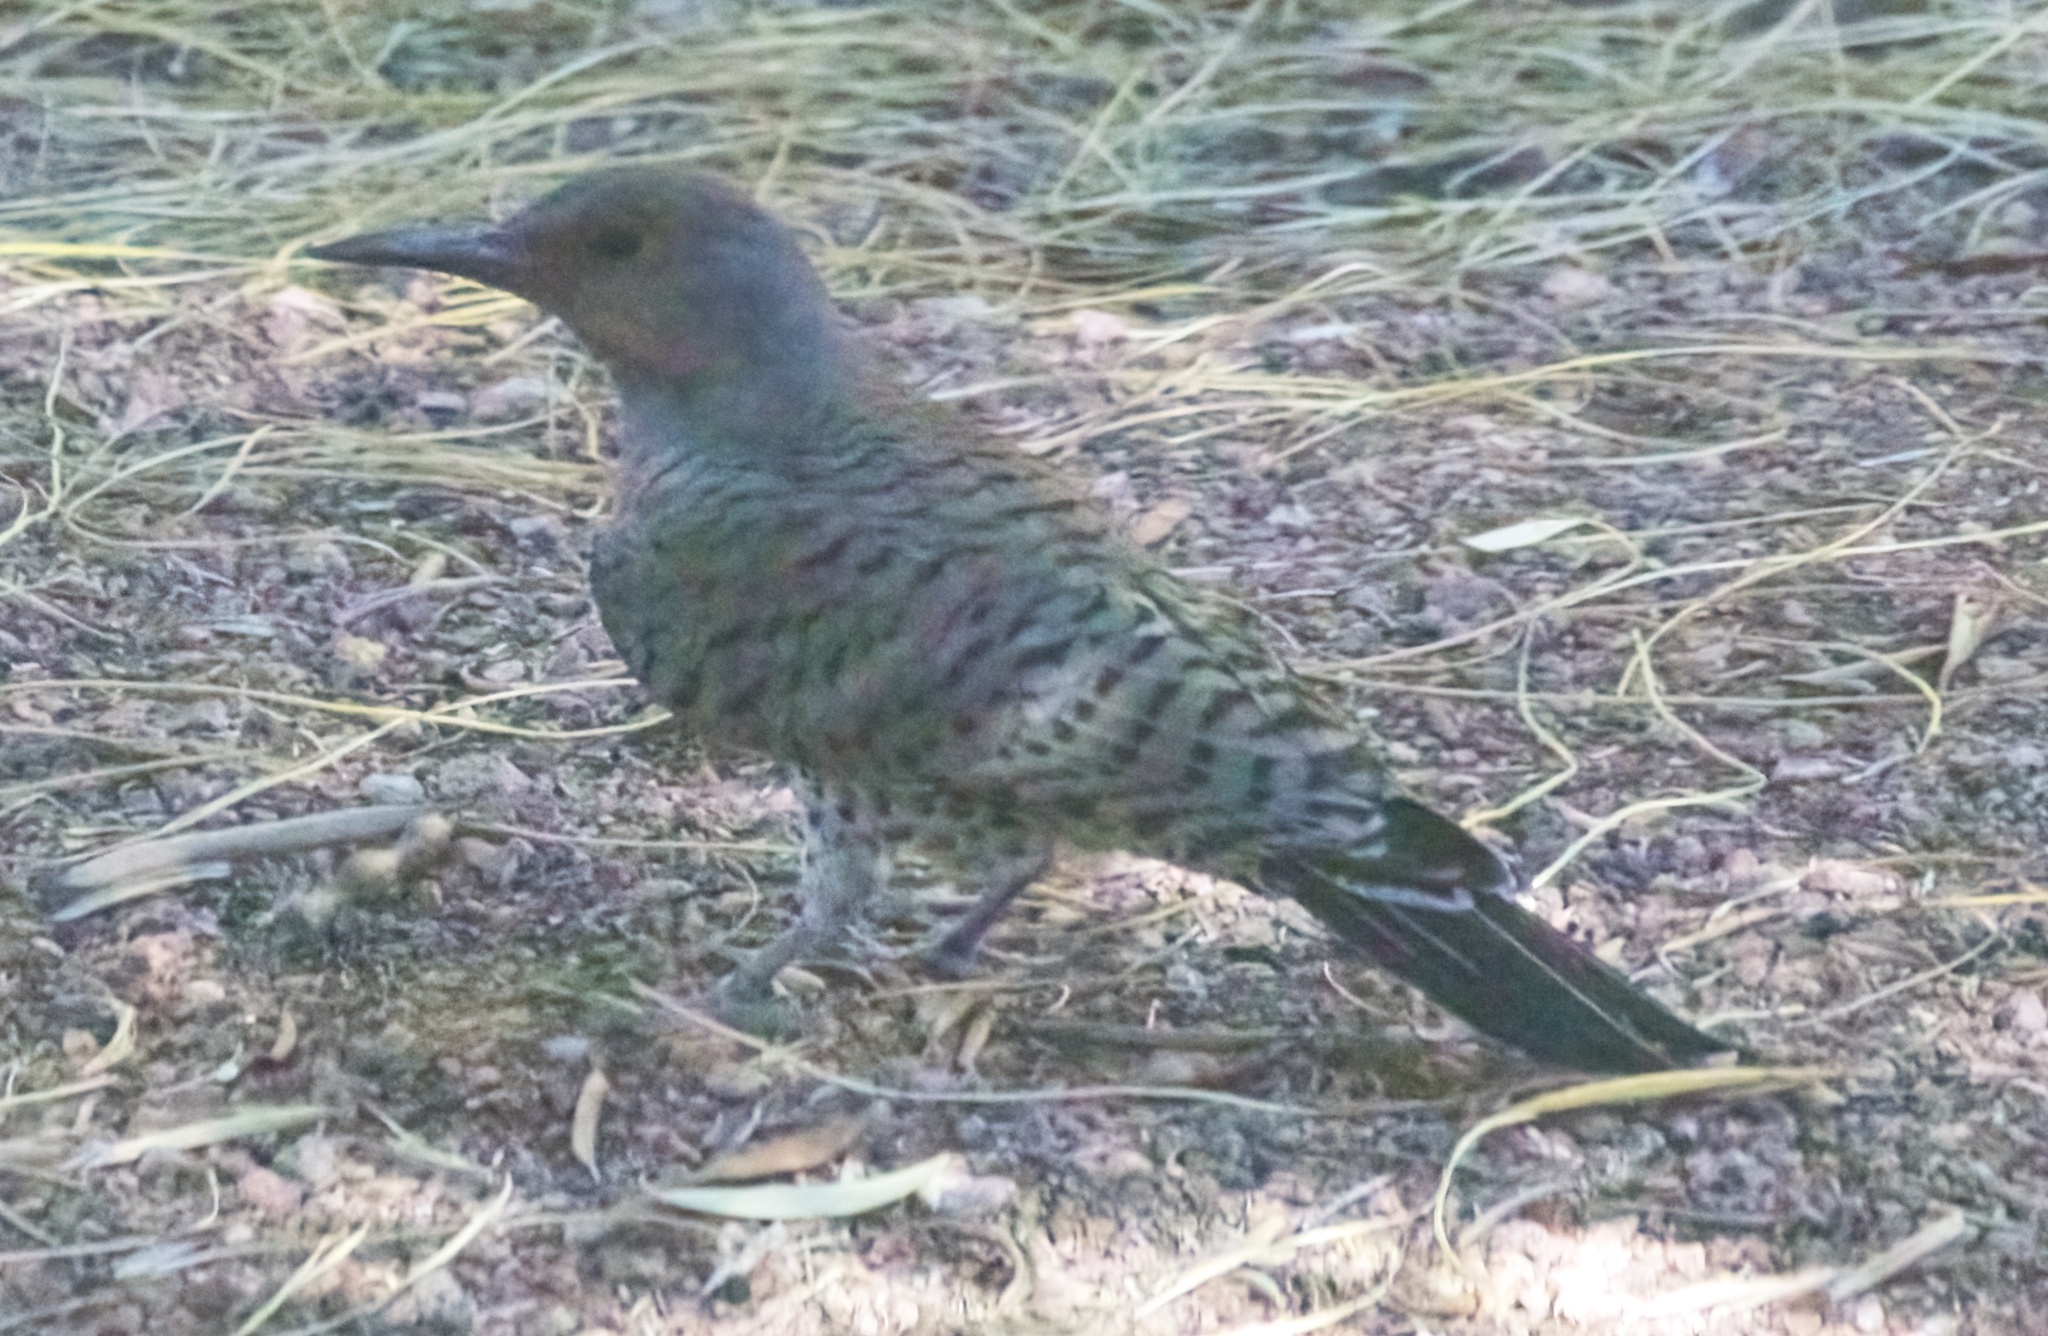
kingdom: Animalia
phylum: Chordata
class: Aves
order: Piciformes
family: Picidae
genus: Colaptes
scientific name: Colaptes auratus
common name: Northern flicker
